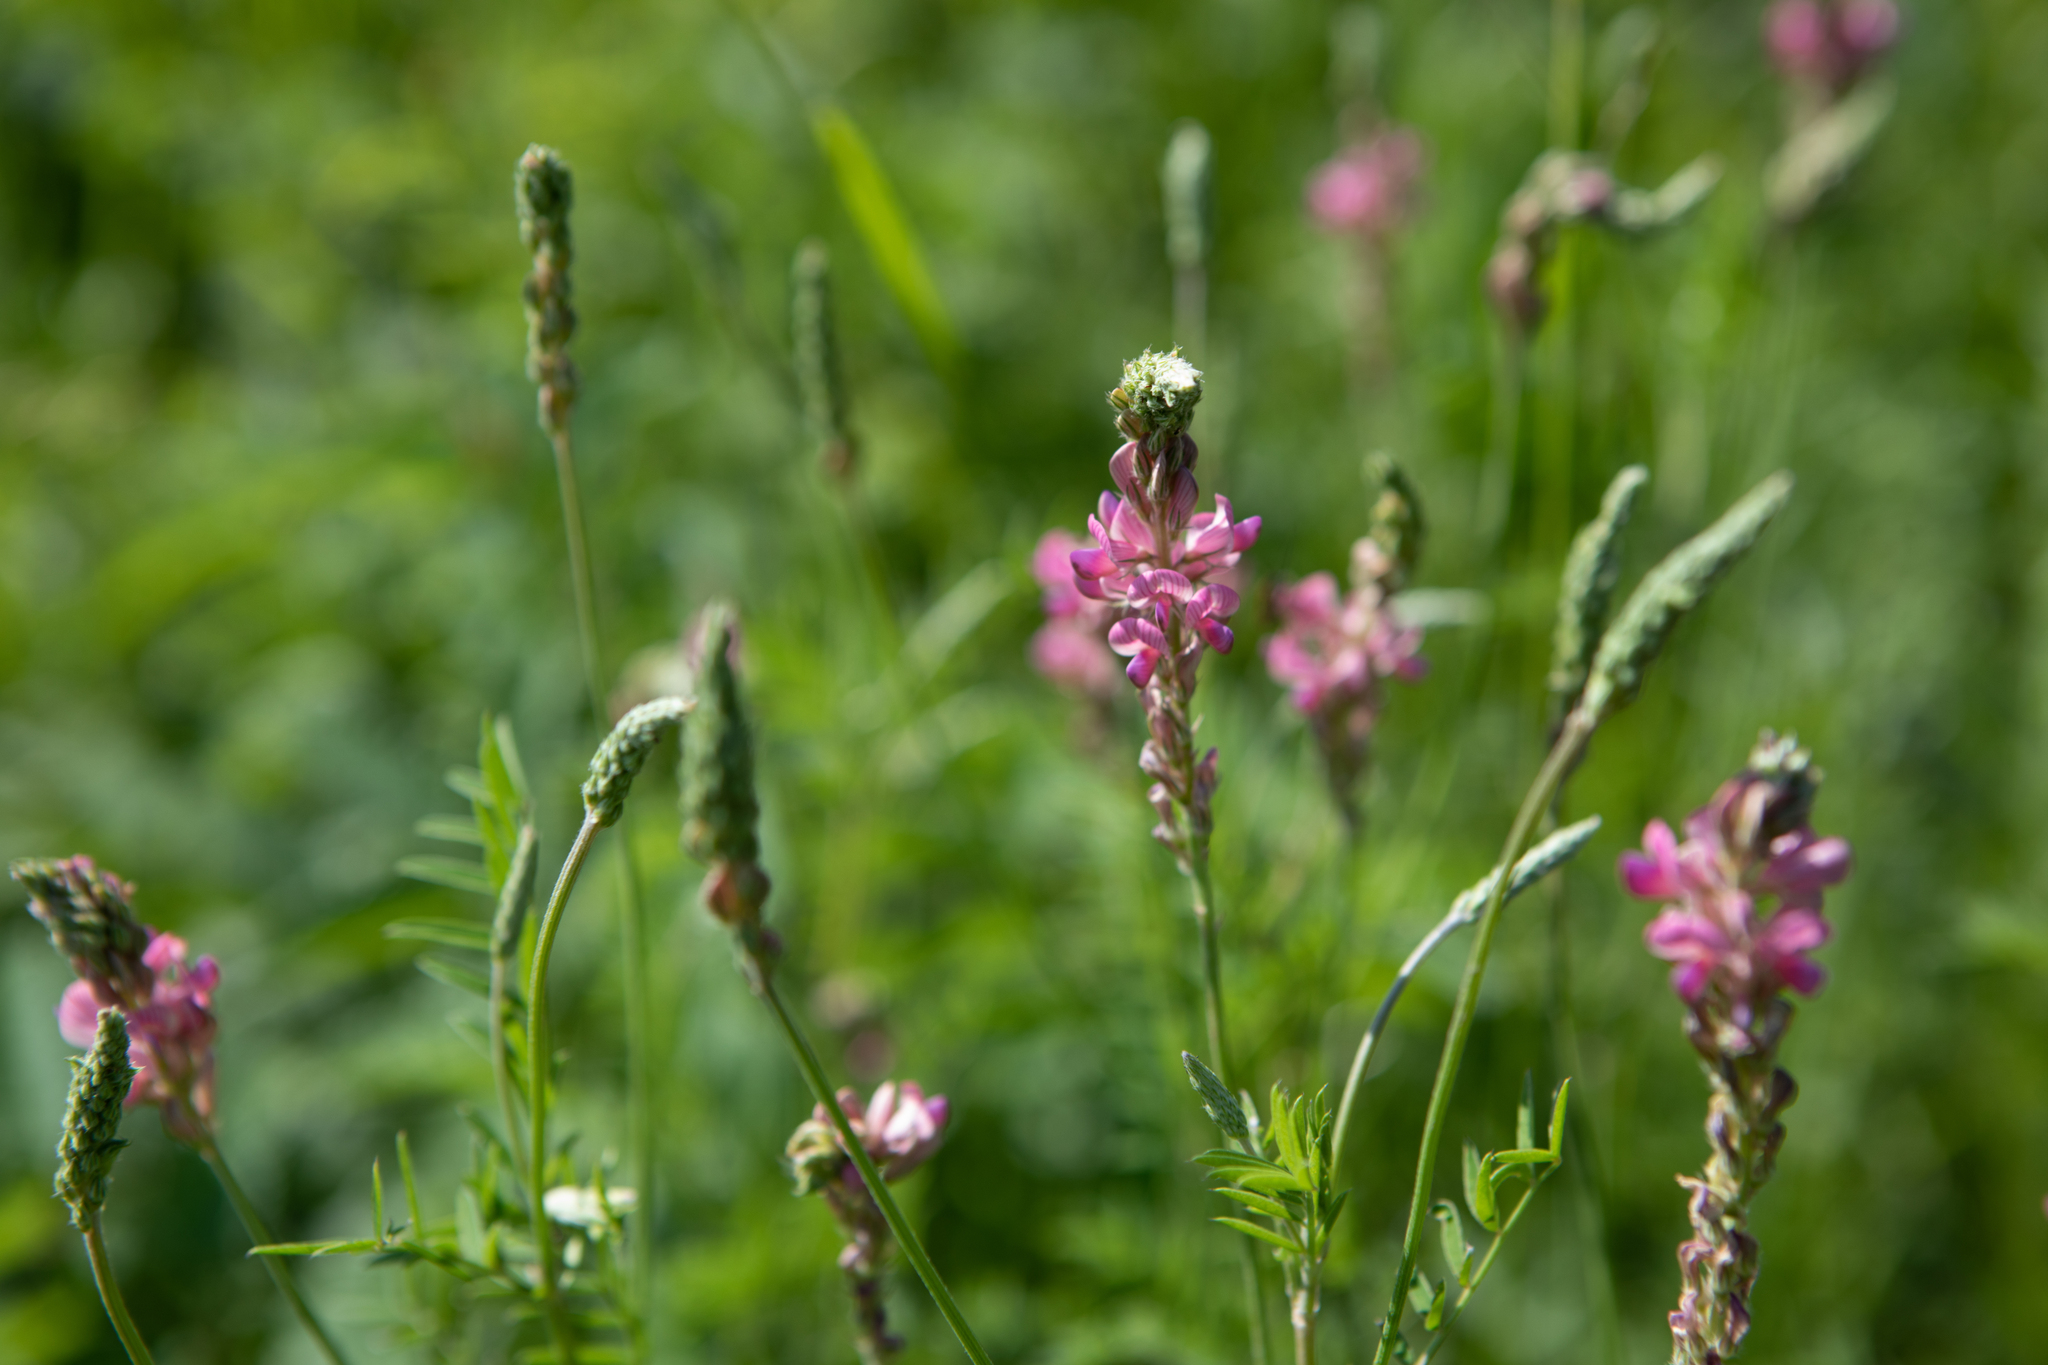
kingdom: Plantae
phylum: Tracheophyta
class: Magnoliopsida
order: Fabales
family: Fabaceae
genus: Onobrychis
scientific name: Onobrychis viciifolia
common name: Sainfoin
